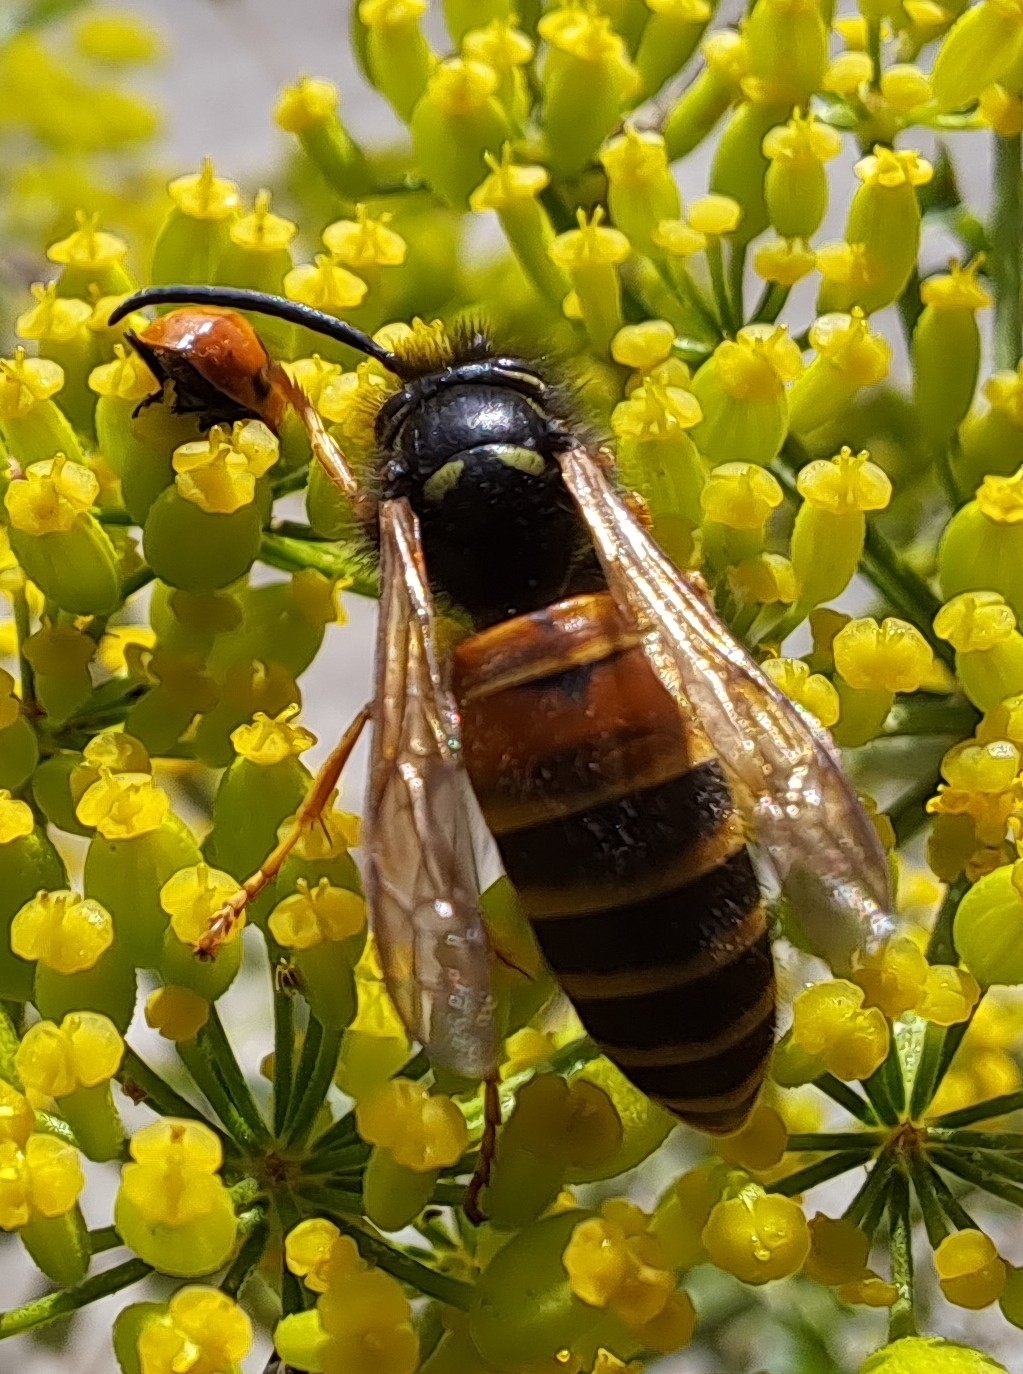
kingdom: Animalia
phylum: Arthropoda
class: Insecta
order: Hymenoptera
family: Vespidae
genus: Vespula
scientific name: Vespula rufa
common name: Red wasp
